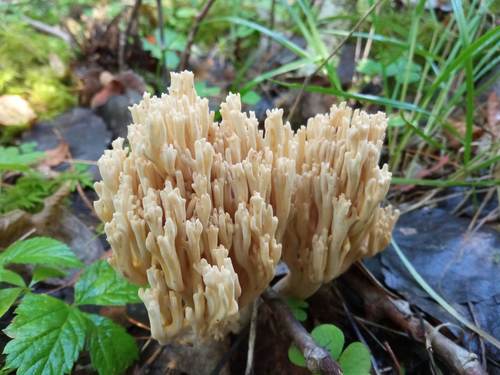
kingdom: Fungi
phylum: Basidiomycota
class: Agaricomycetes
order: Gomphales
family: Gomphaceae
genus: Ramaria
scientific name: Ramaria
